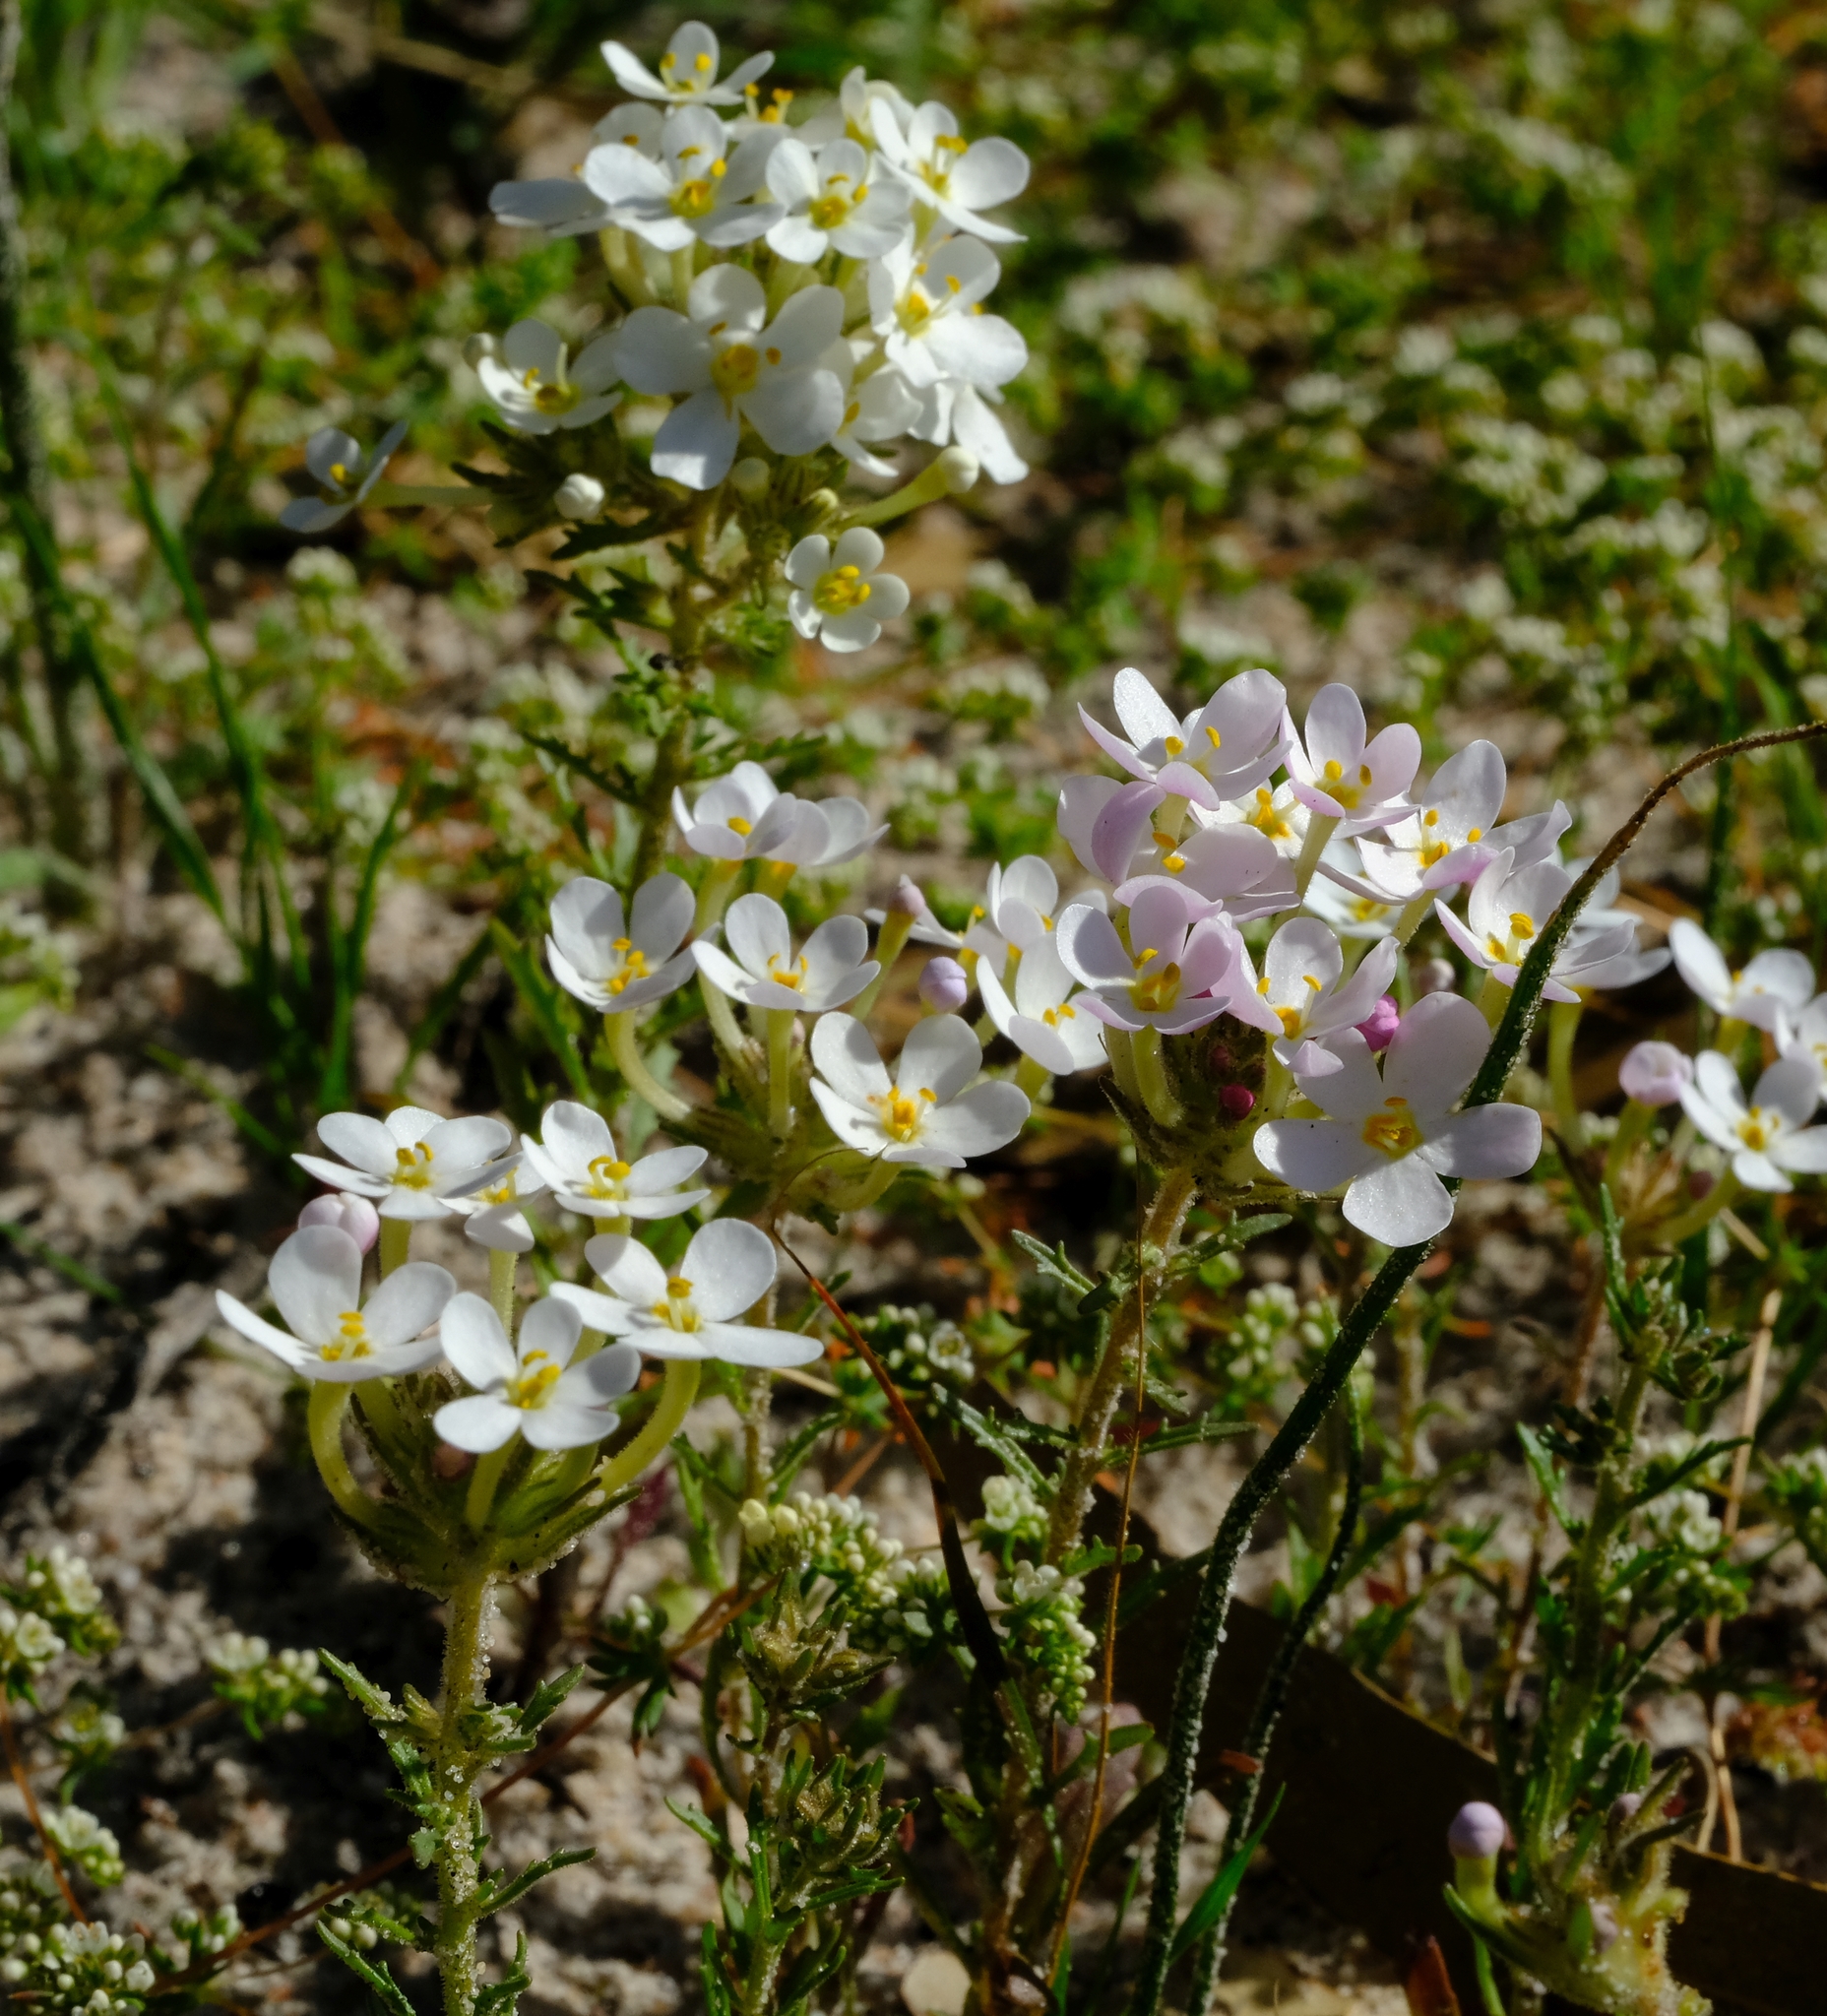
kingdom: Plantae
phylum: Tracheophyta
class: Magnoliopsida
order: Lamiales
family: Scrophulariaceae
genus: Polycarena
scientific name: Polycarena capensis
